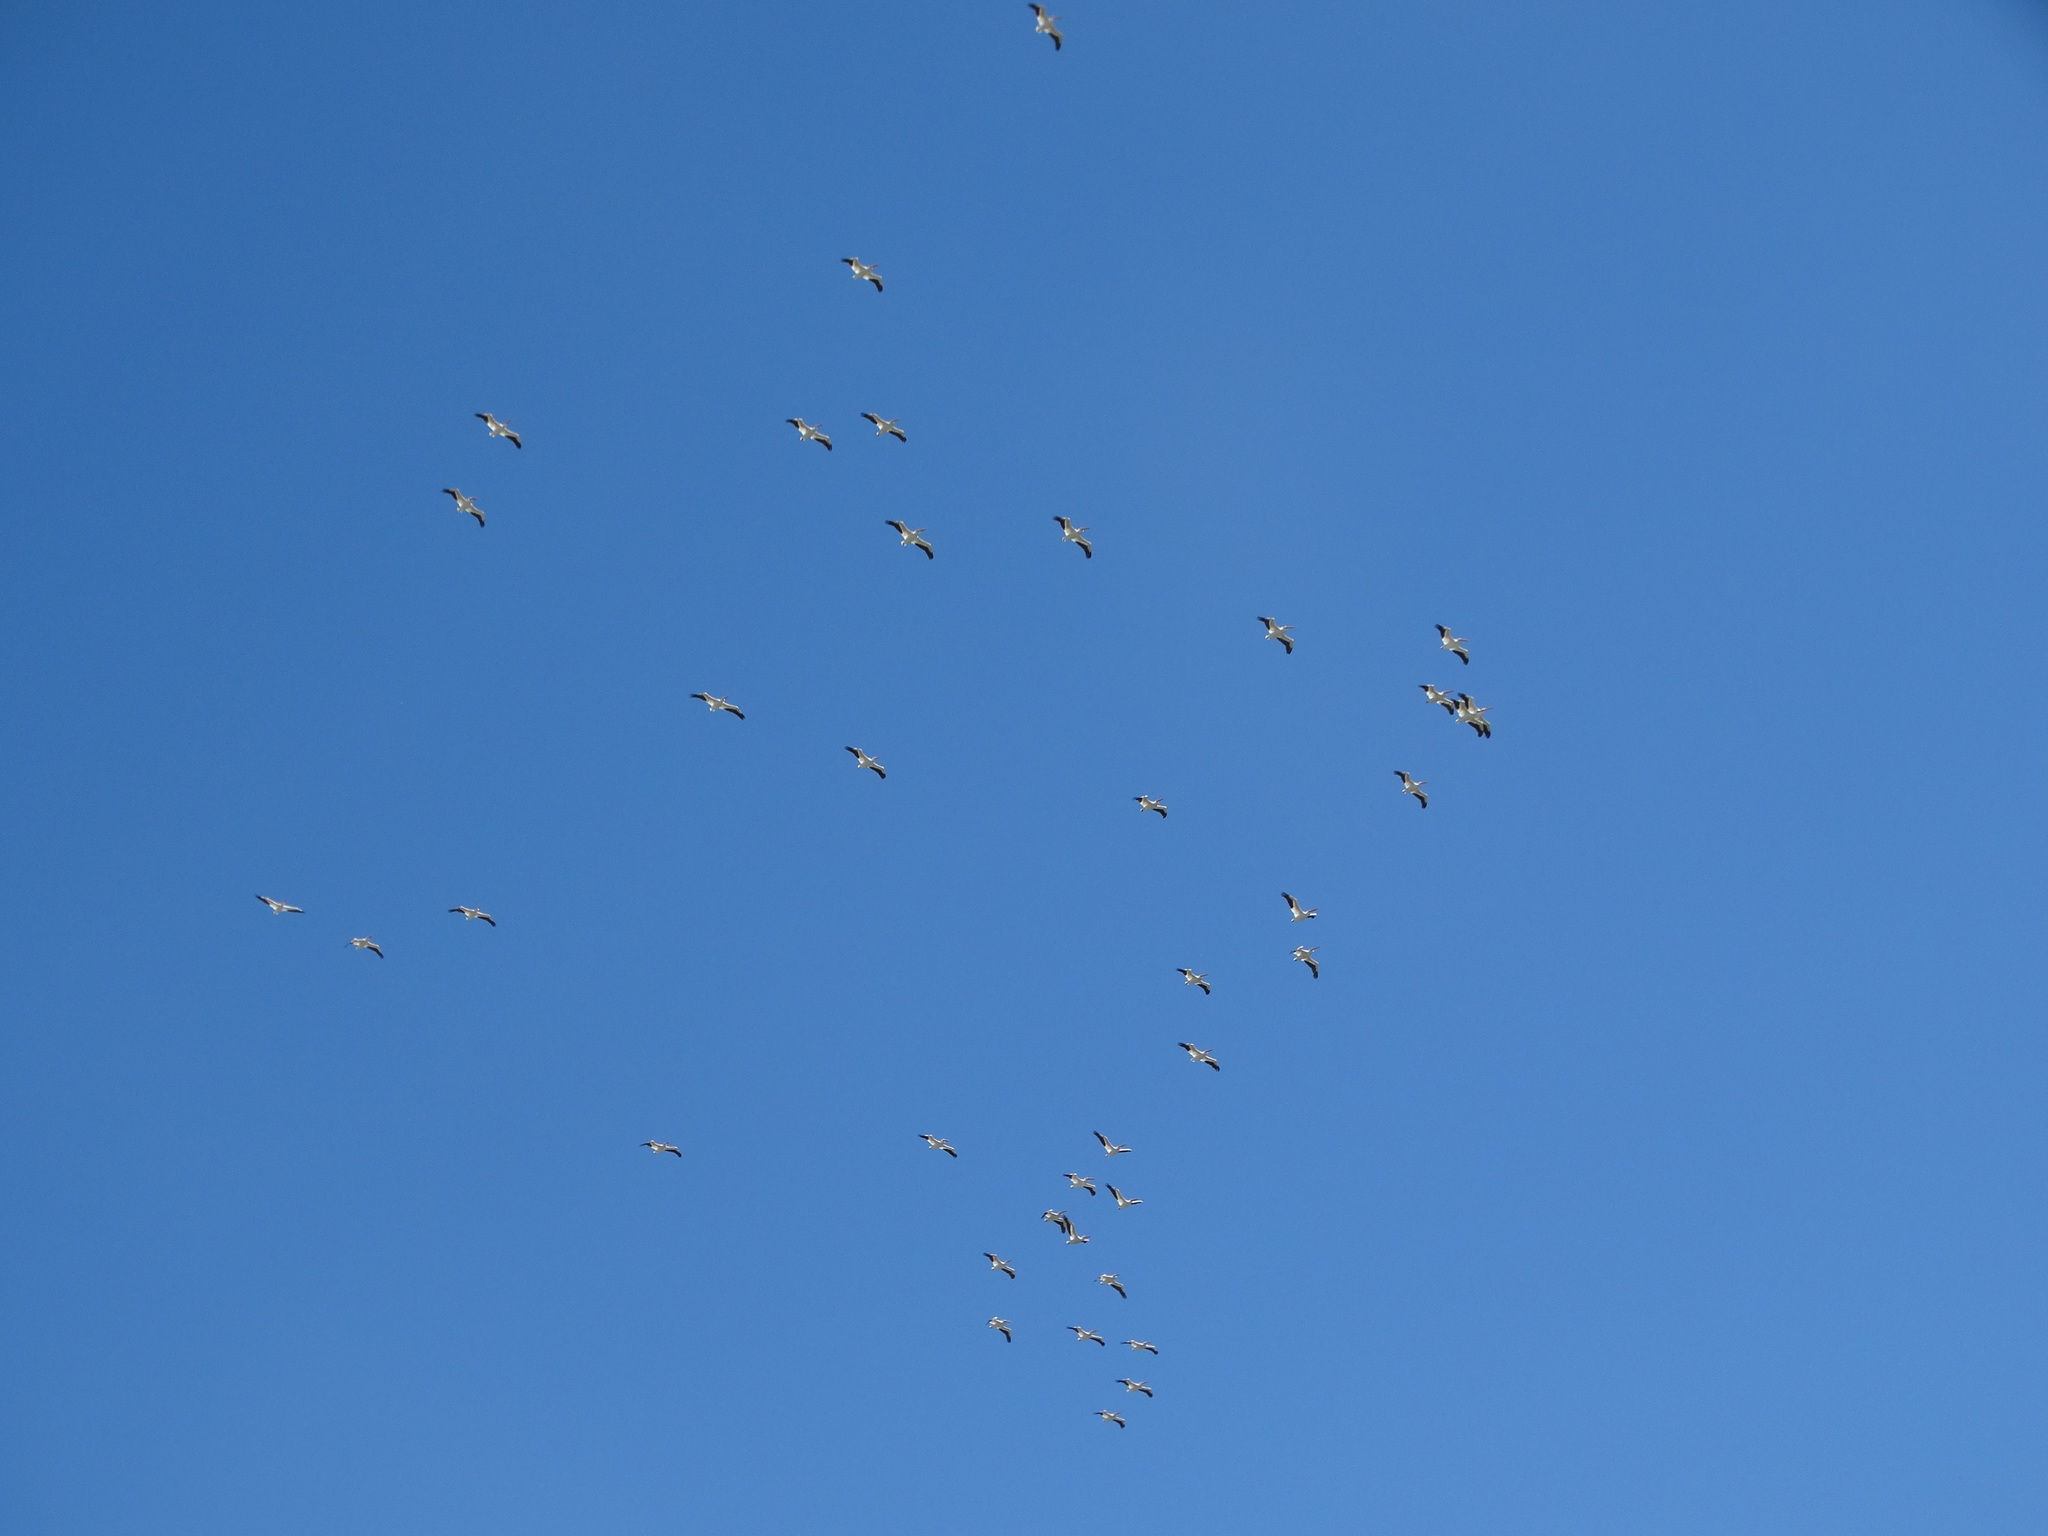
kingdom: Animalia
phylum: Chordata
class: Aves
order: Pelecaniformes
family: Pelecanidae
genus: Pelecanus
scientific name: Pelecanus erythrorhynchos
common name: American white pelican
